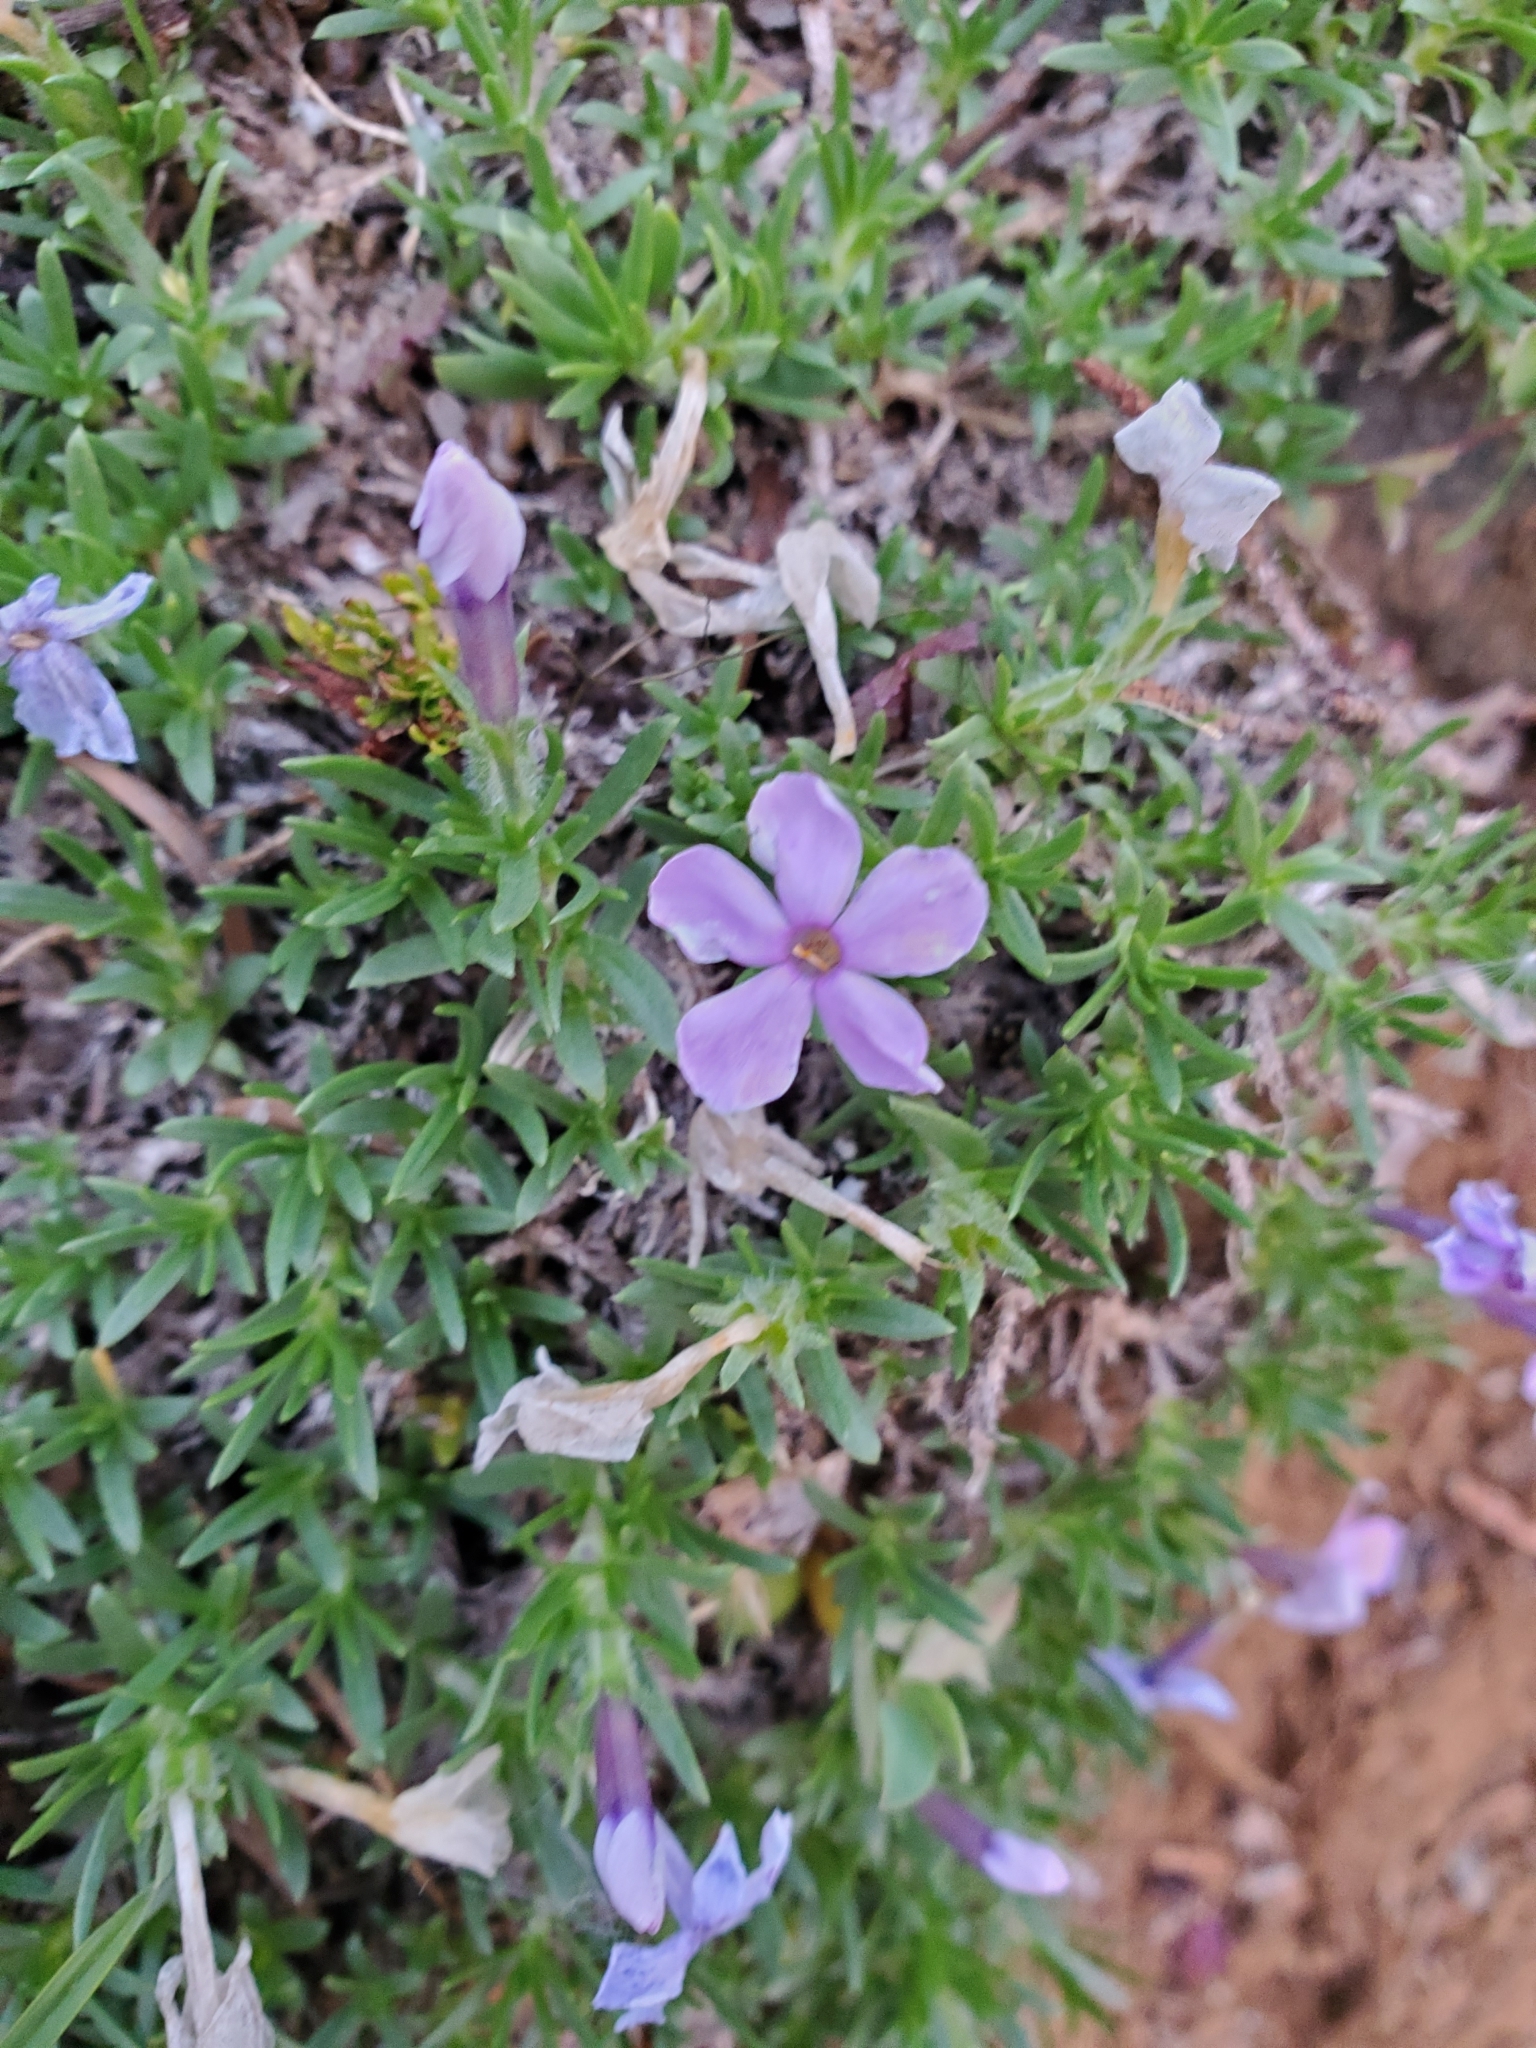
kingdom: Plantae
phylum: Tracheophyta
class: Magnoliopsida
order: Ericales
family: Polemoniaceae
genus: Phlox
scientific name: Phlox diffusa
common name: Mat phlox
